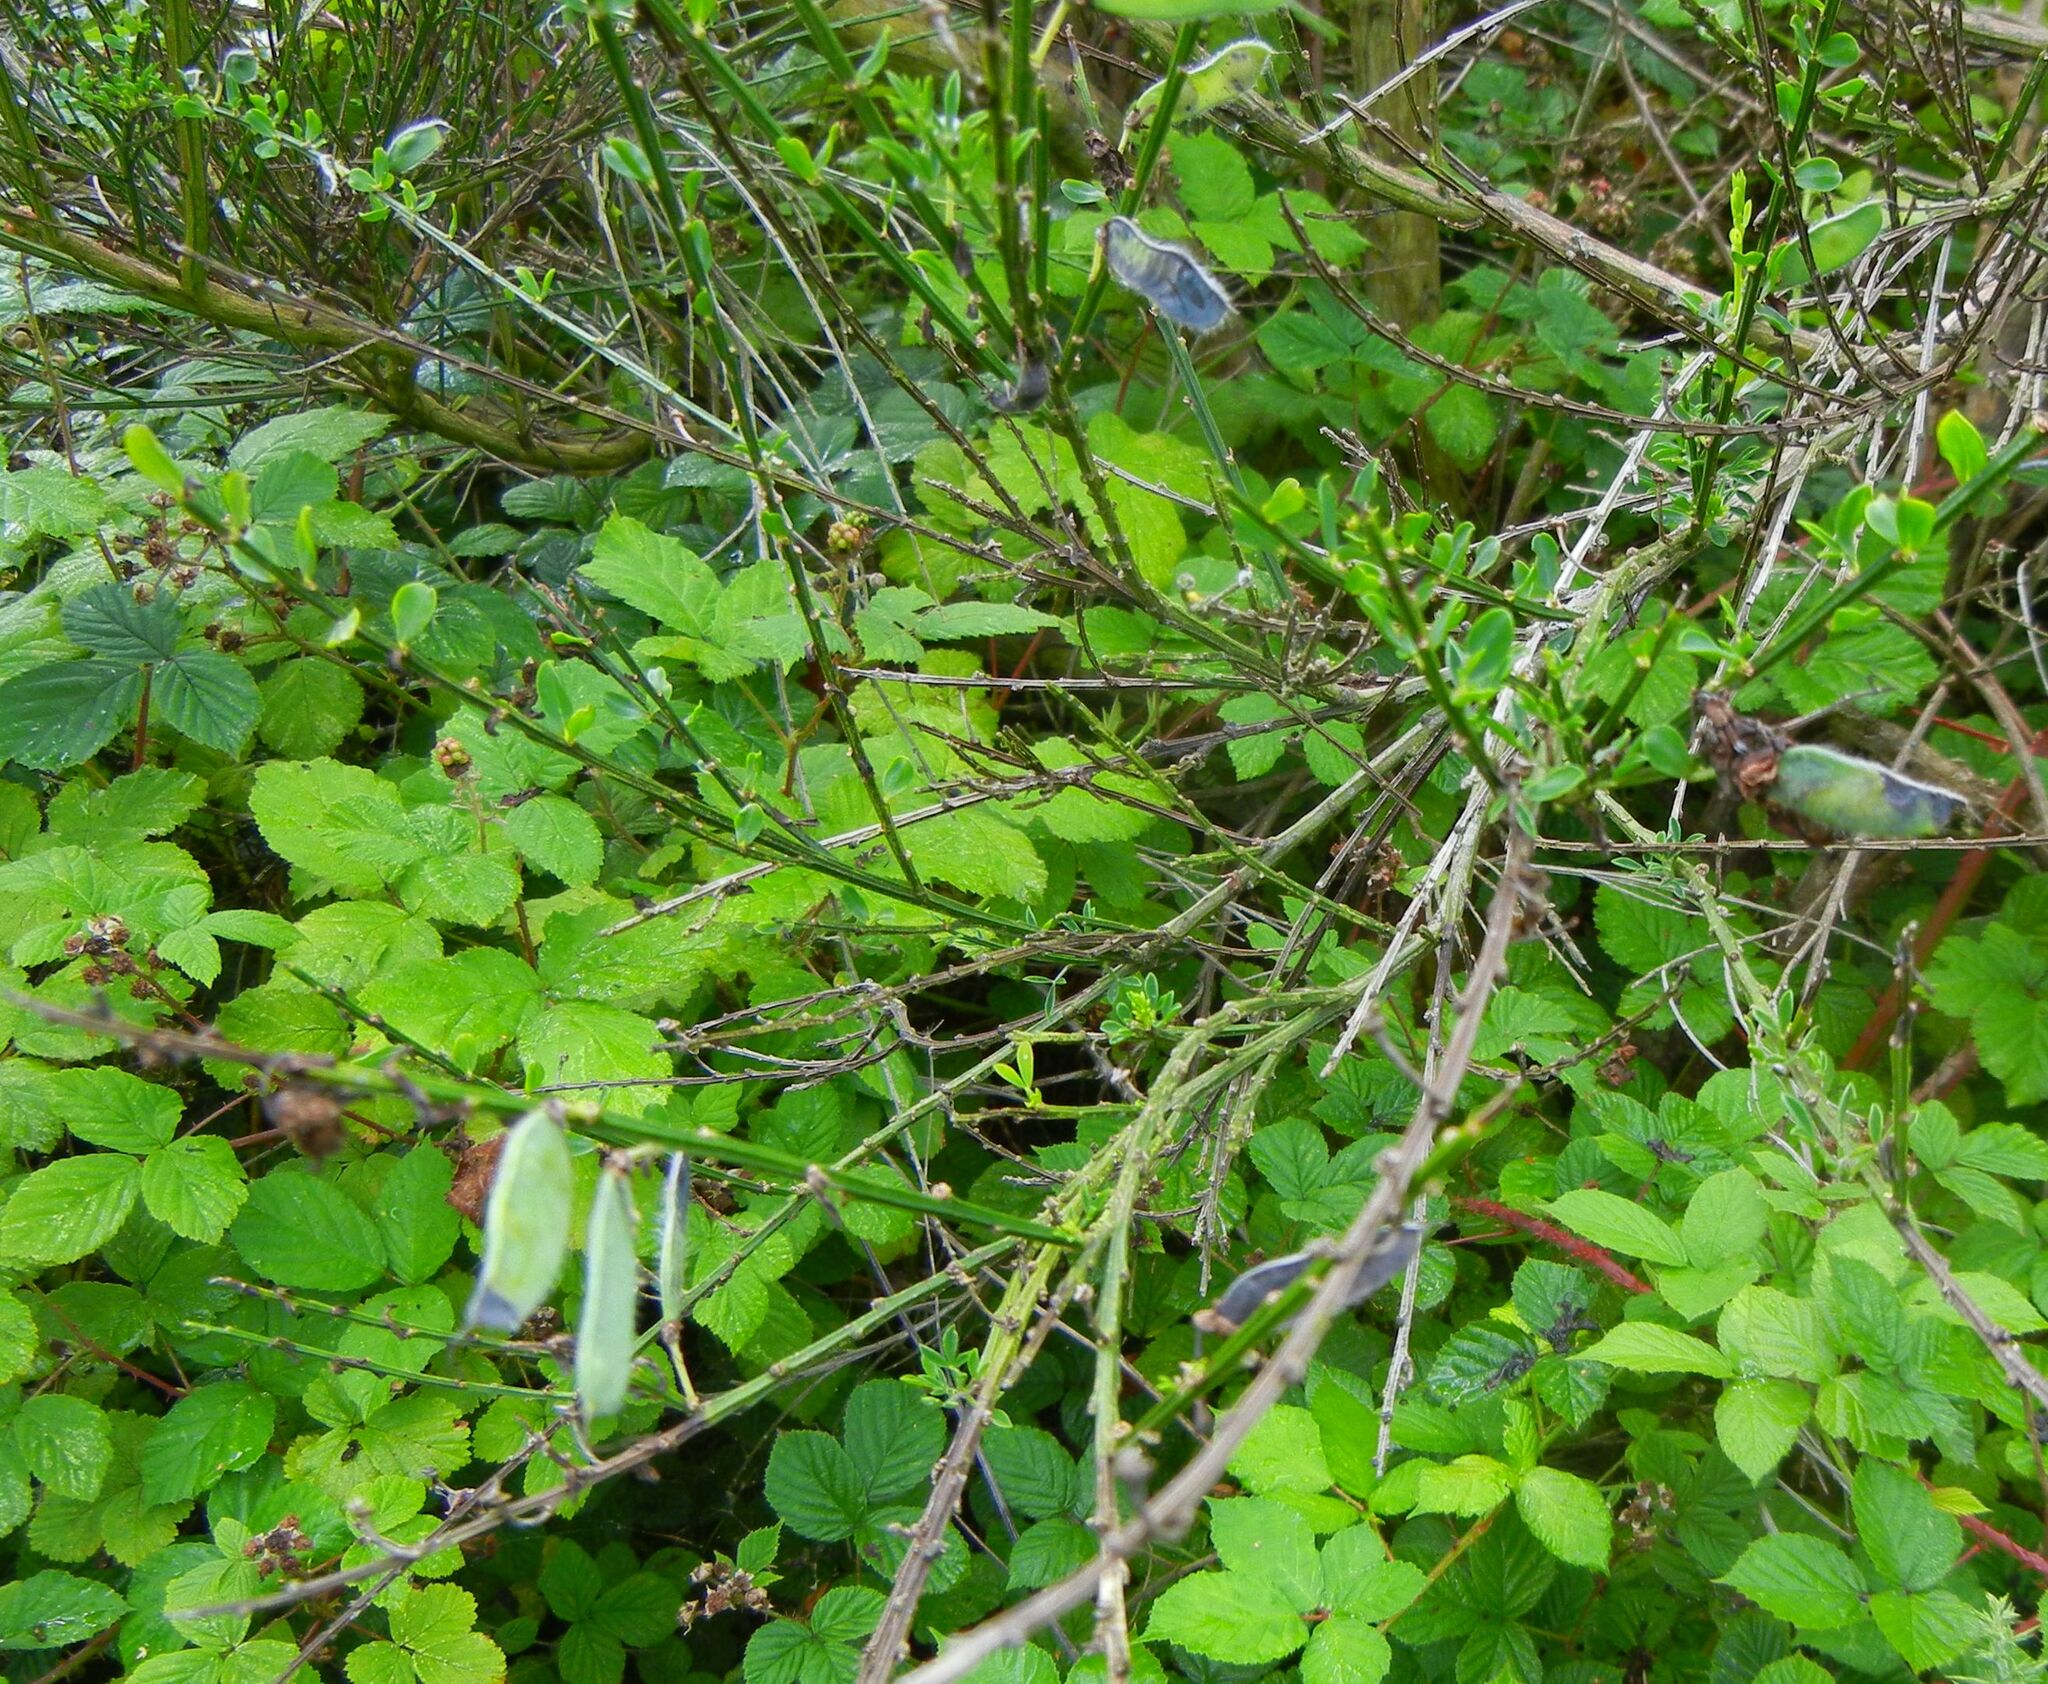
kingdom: Plantae
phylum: Tracheophyta
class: Magnoliopsida
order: Fabales
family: Fabaceae
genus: Cytisus
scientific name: Cytisus scoparius
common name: Scotch broom
